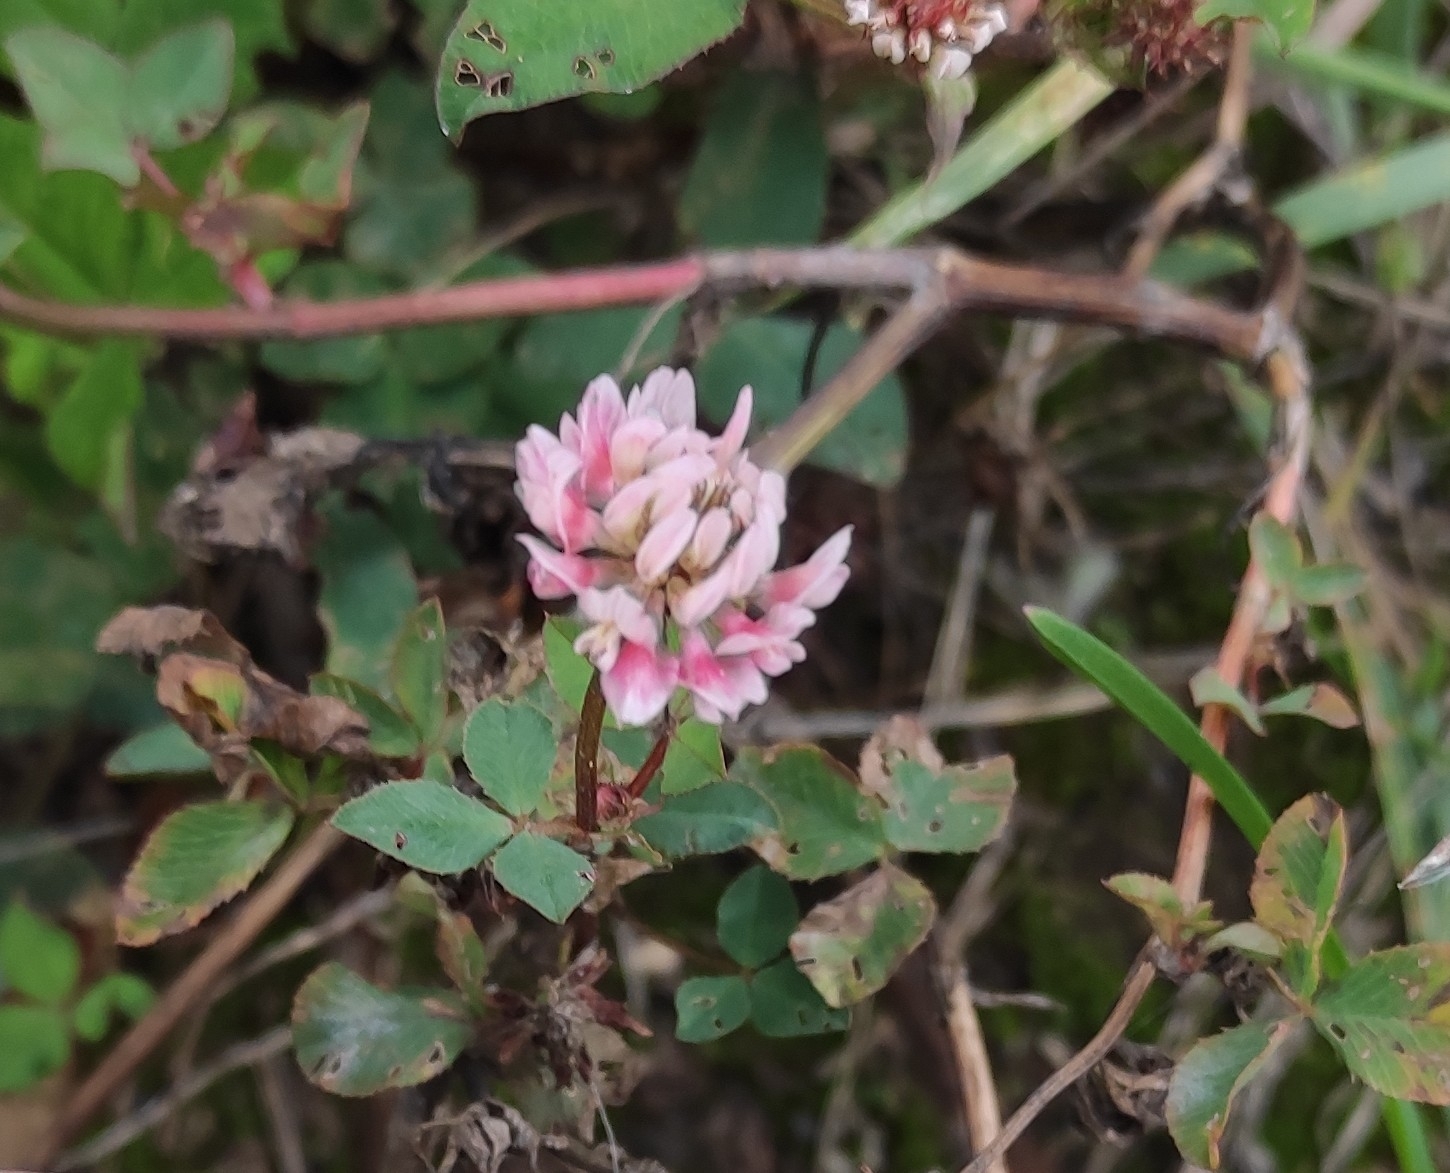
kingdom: Plantae
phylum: Tracheophyta
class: Magnoliopsida
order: Fabales
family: Fabaceae
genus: Trifolium
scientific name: Trifolium hybridum
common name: Alsike clover
